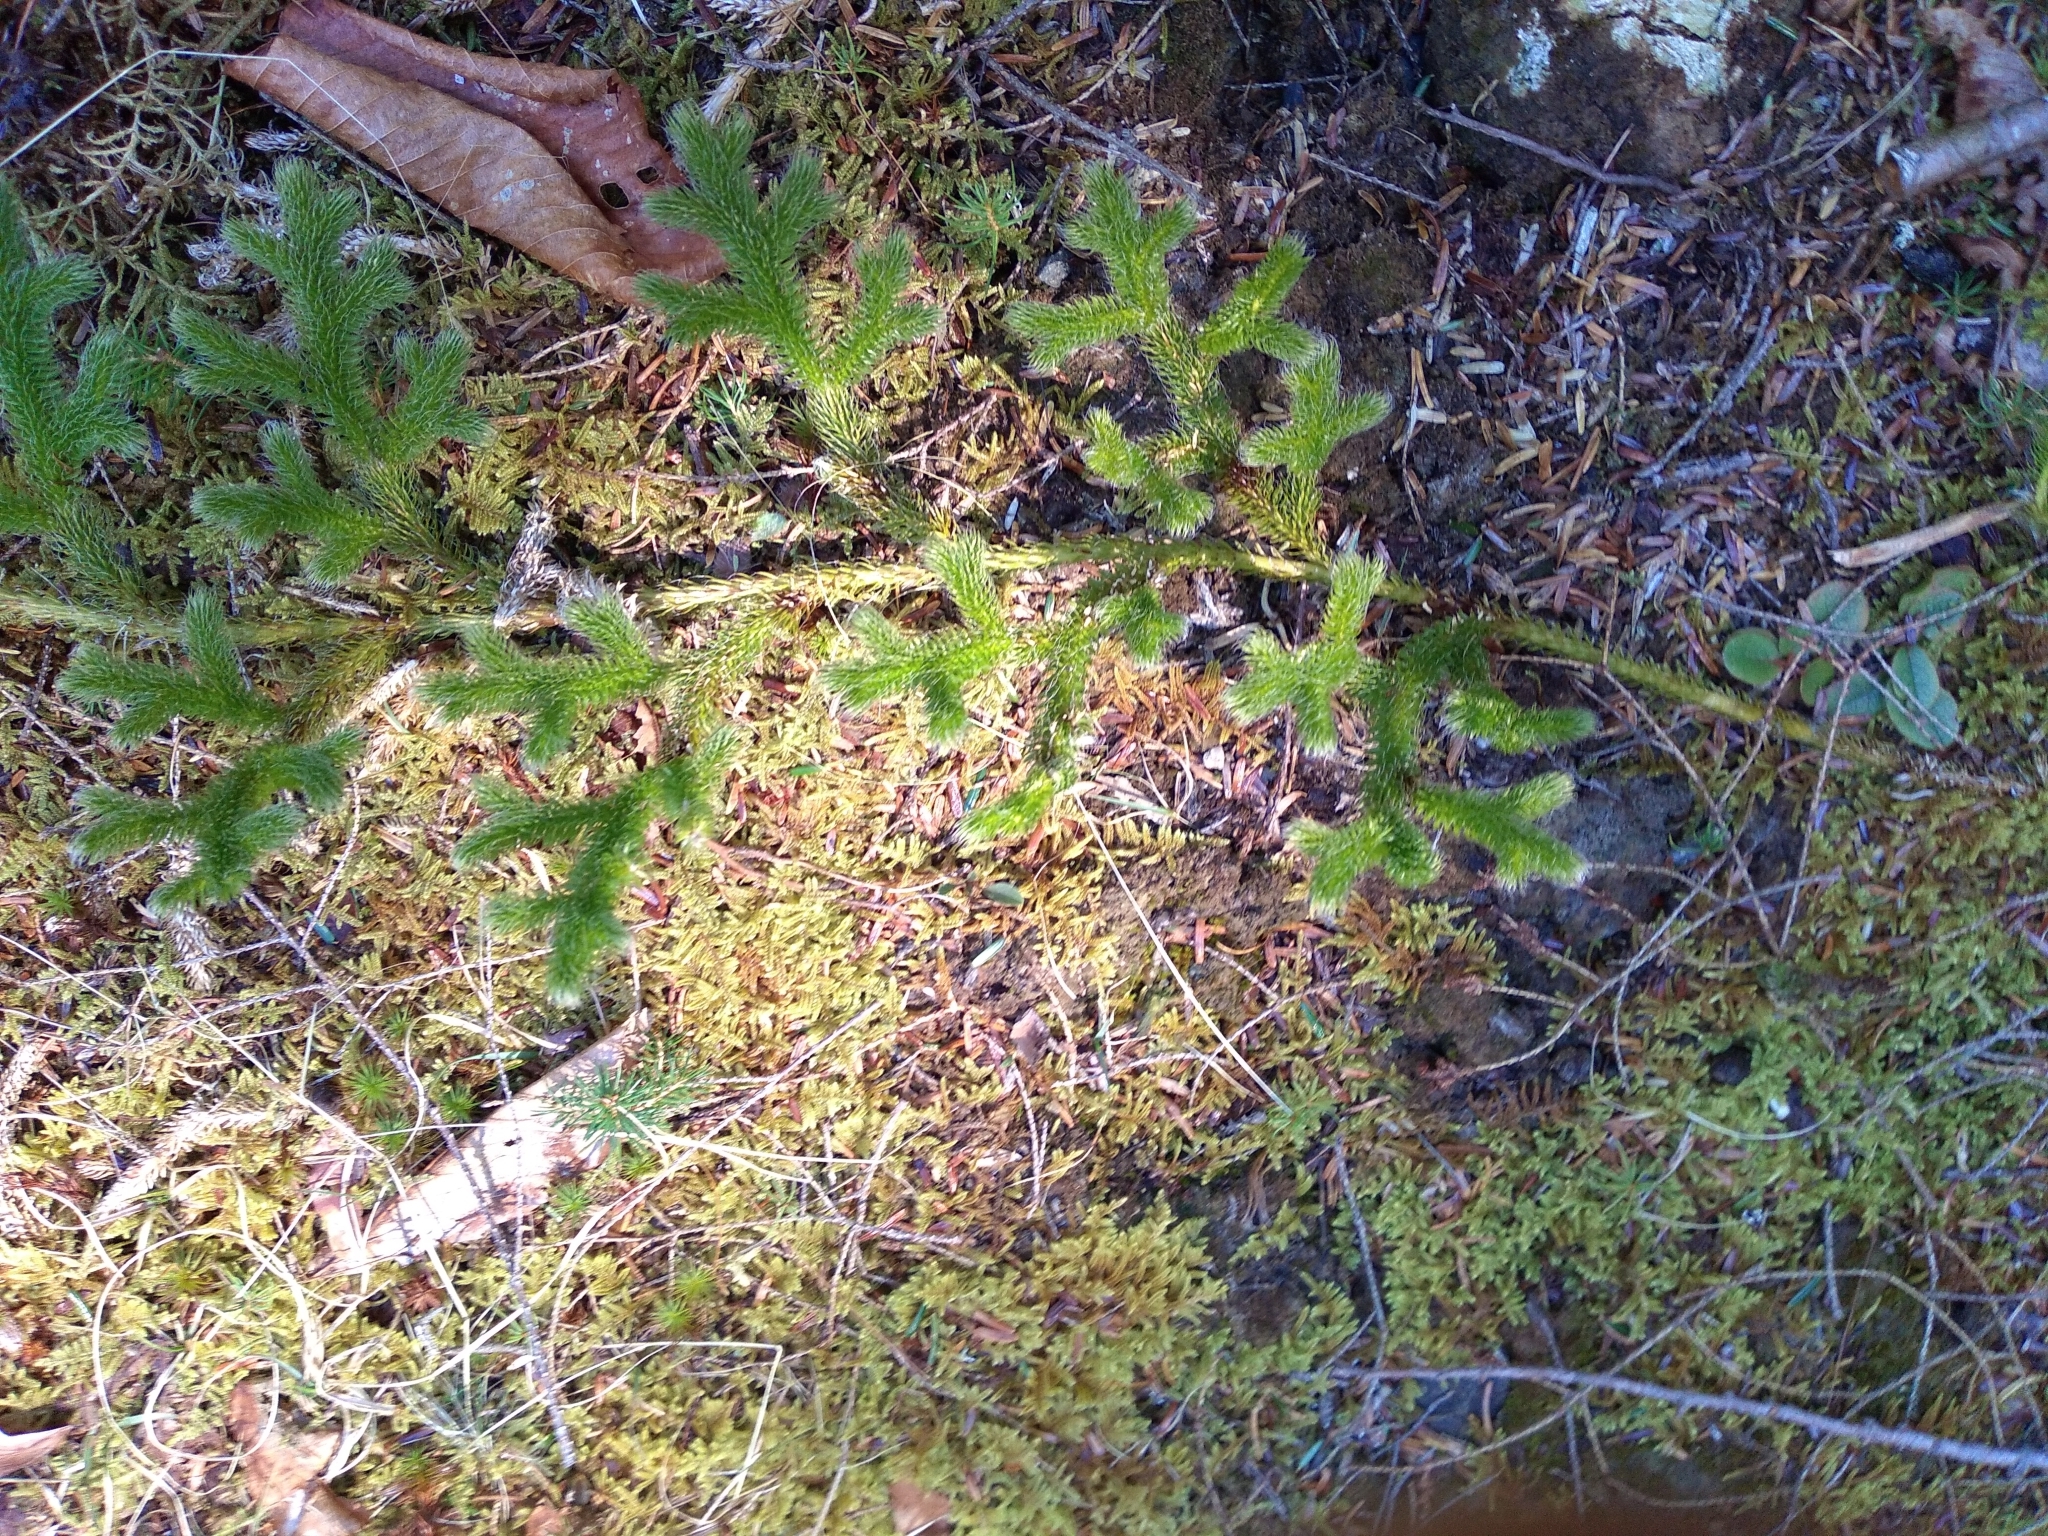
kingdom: Plantae
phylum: Tracheophyta
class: Lycopodiopsida
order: Lycopodiales
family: Lycopodiaceae
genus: Lycopodium
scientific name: Lycopodium clavatum
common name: Stag's-horn clubmoss
